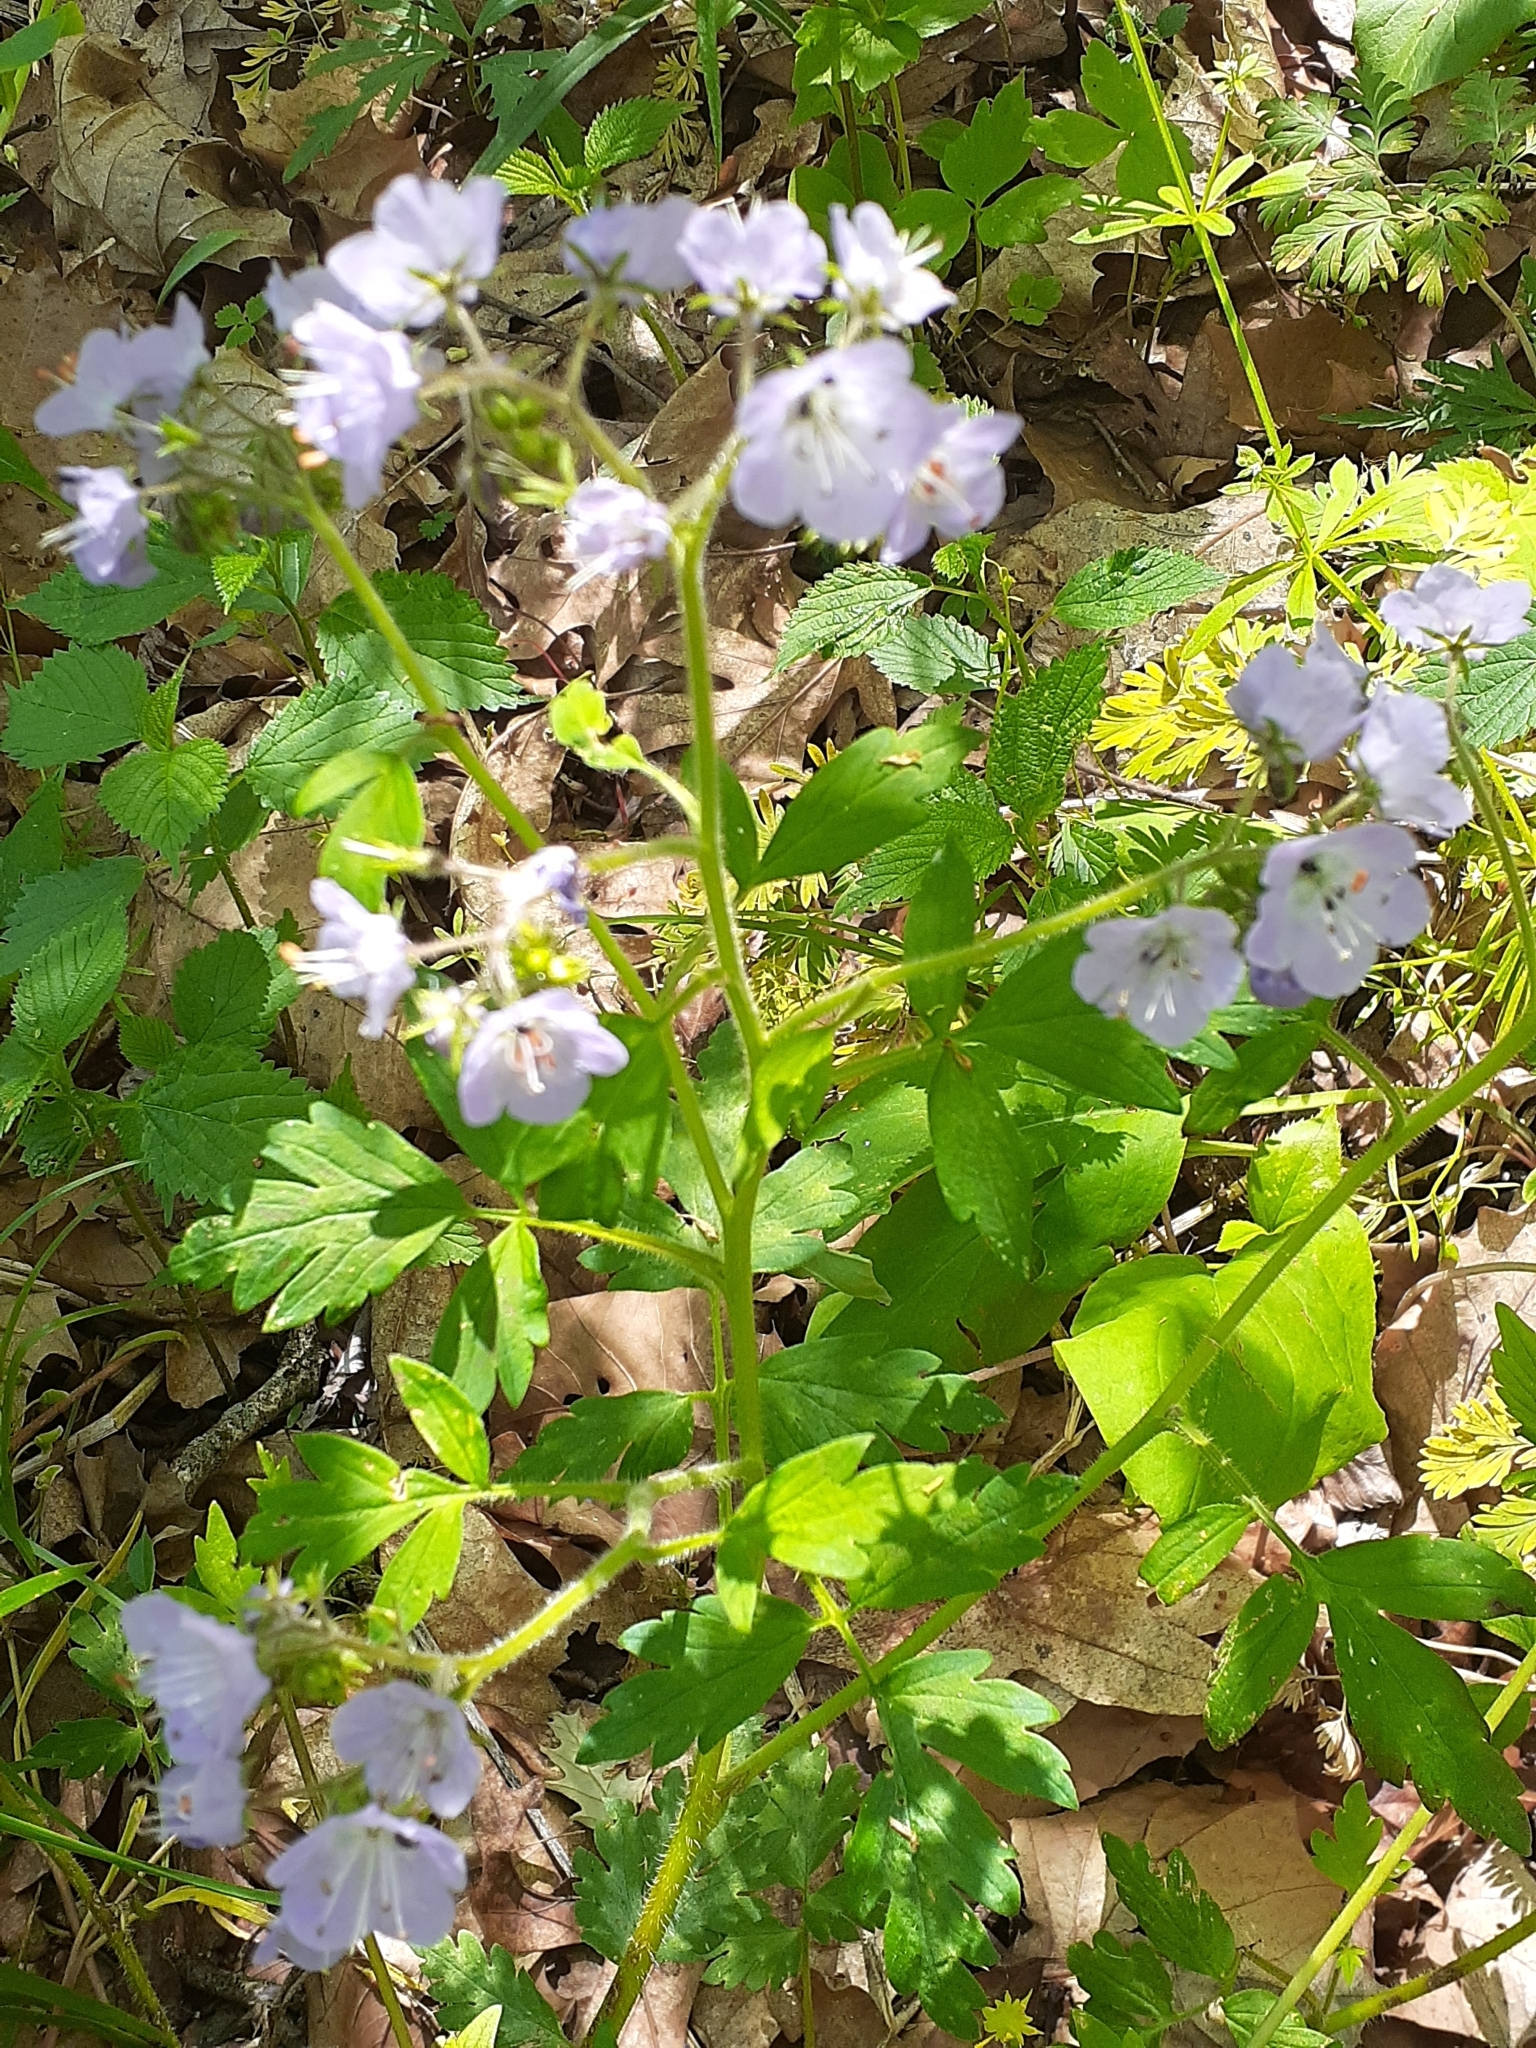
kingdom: Plantae
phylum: Tracheophyta
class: Magnoliopsida
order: Boraginales
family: Hydrophyllaceae
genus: Phacelia
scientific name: Phacelia bipinnatifida
